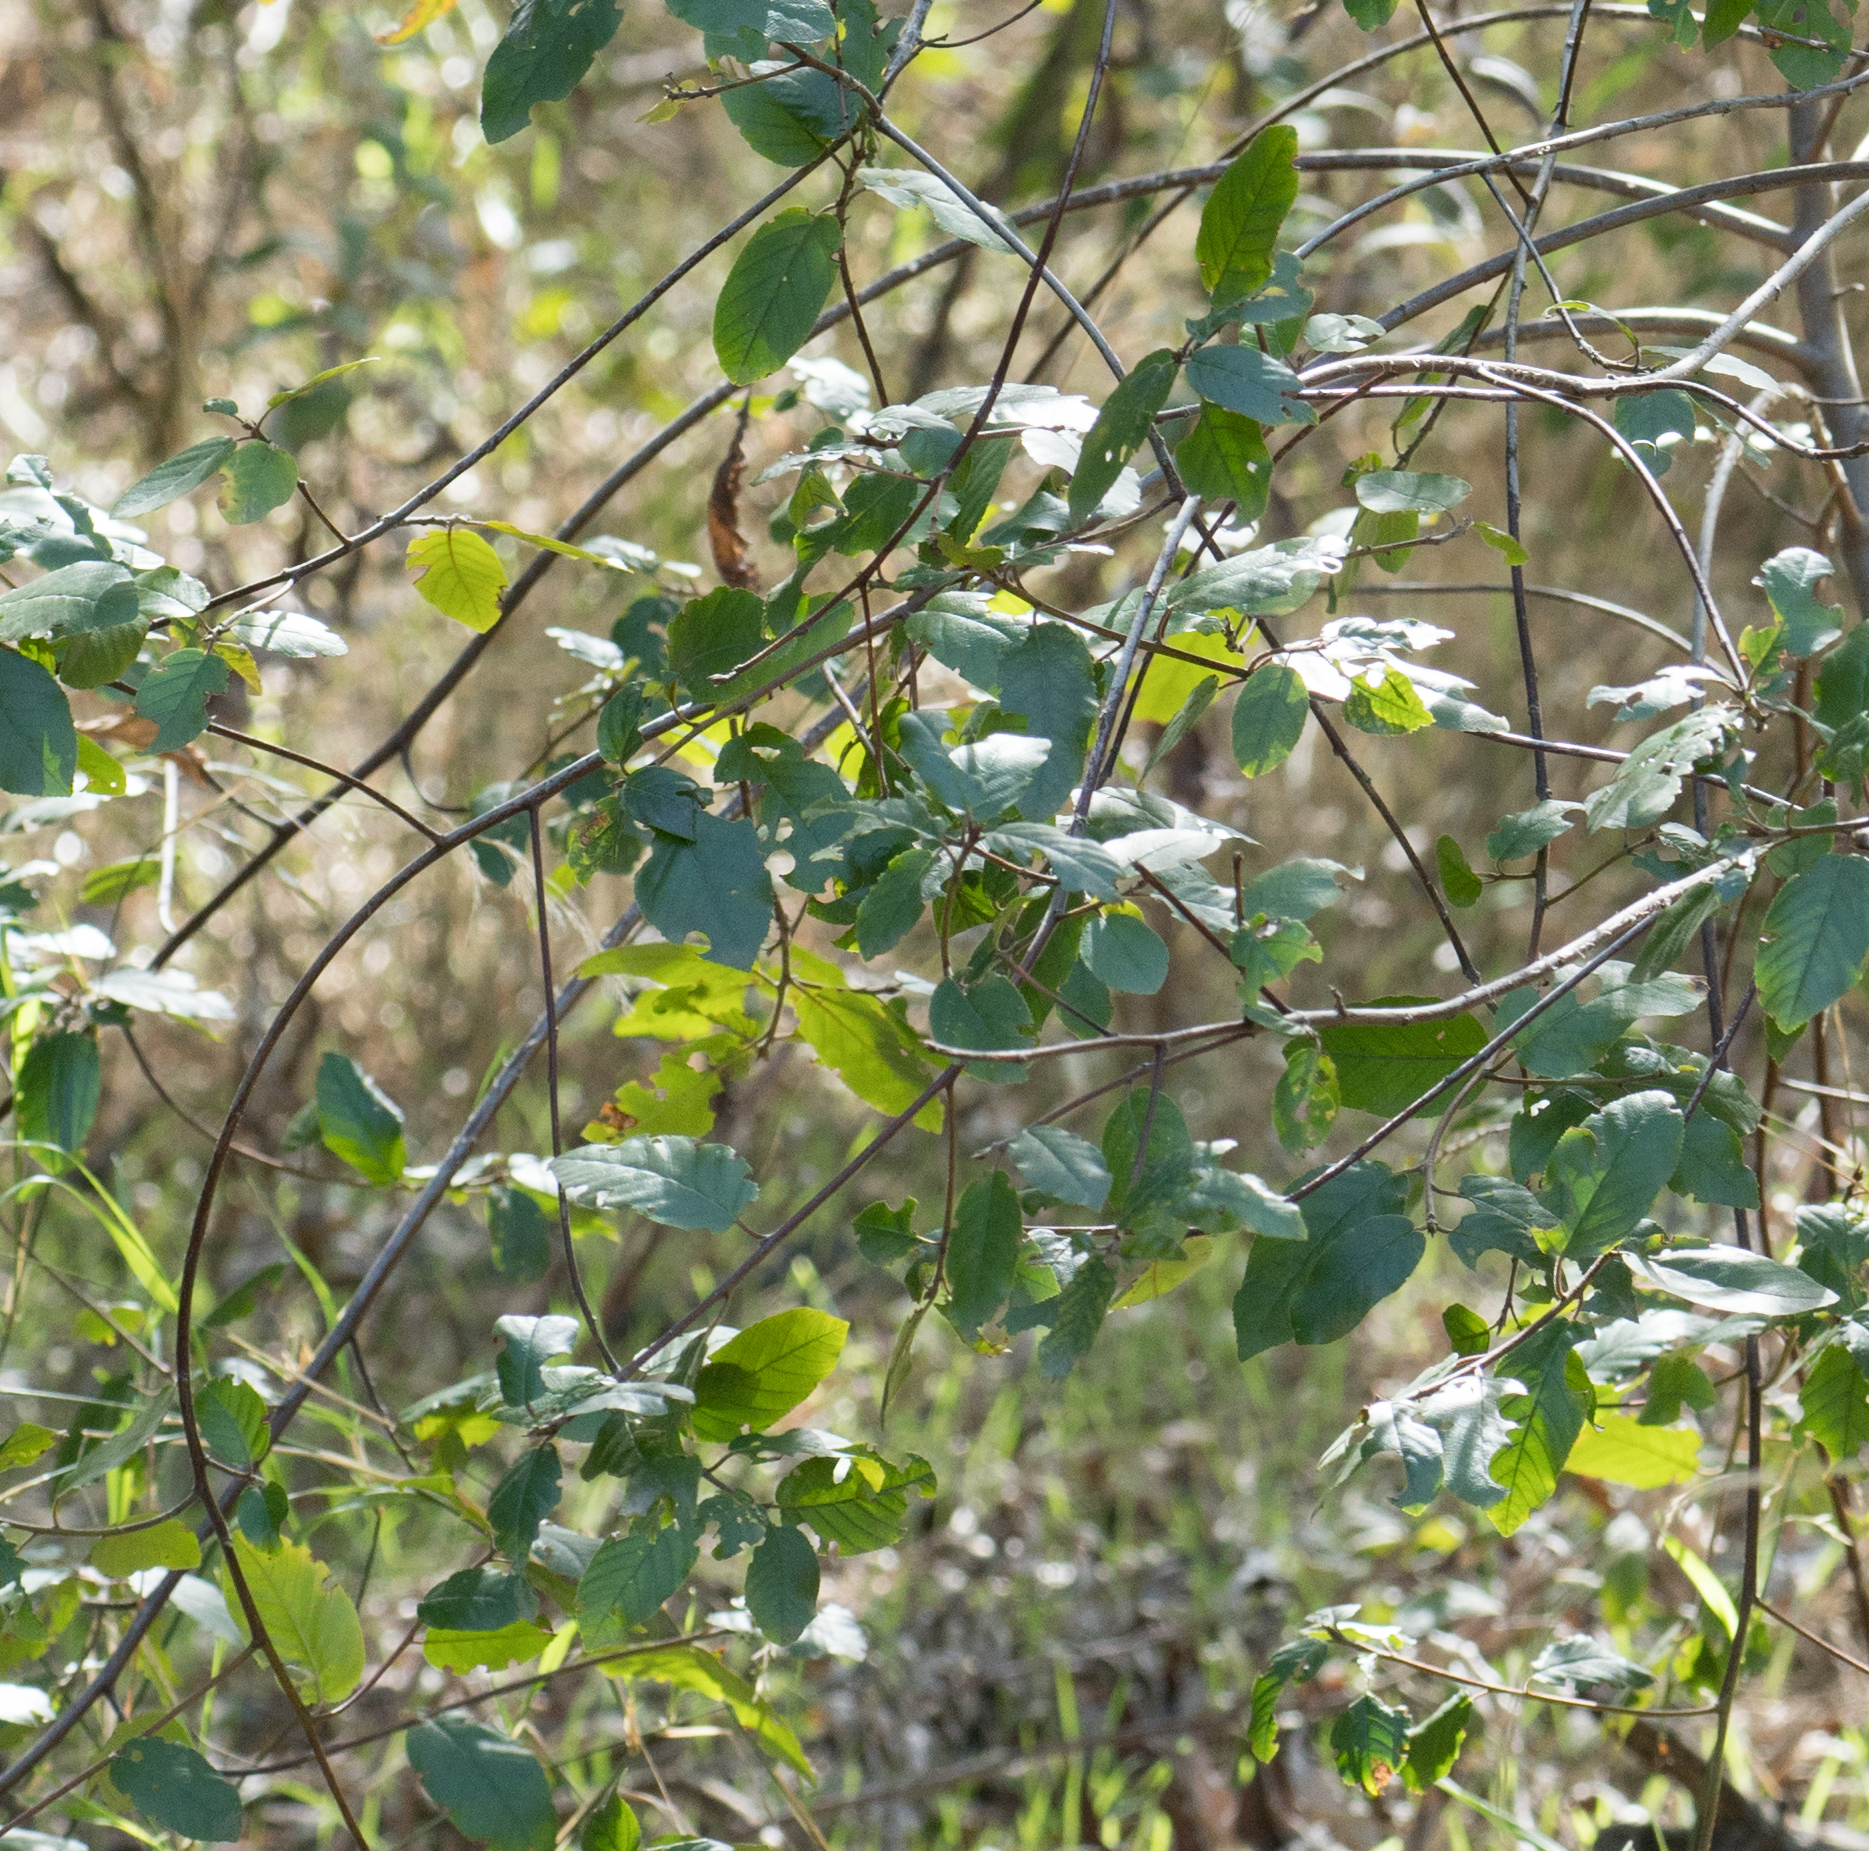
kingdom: Plantae
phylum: Tracheophyta
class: Magnoliopsida
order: Rosales
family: Rhamnaceae
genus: Frangula
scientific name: Frangula californica
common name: California buckthorn
